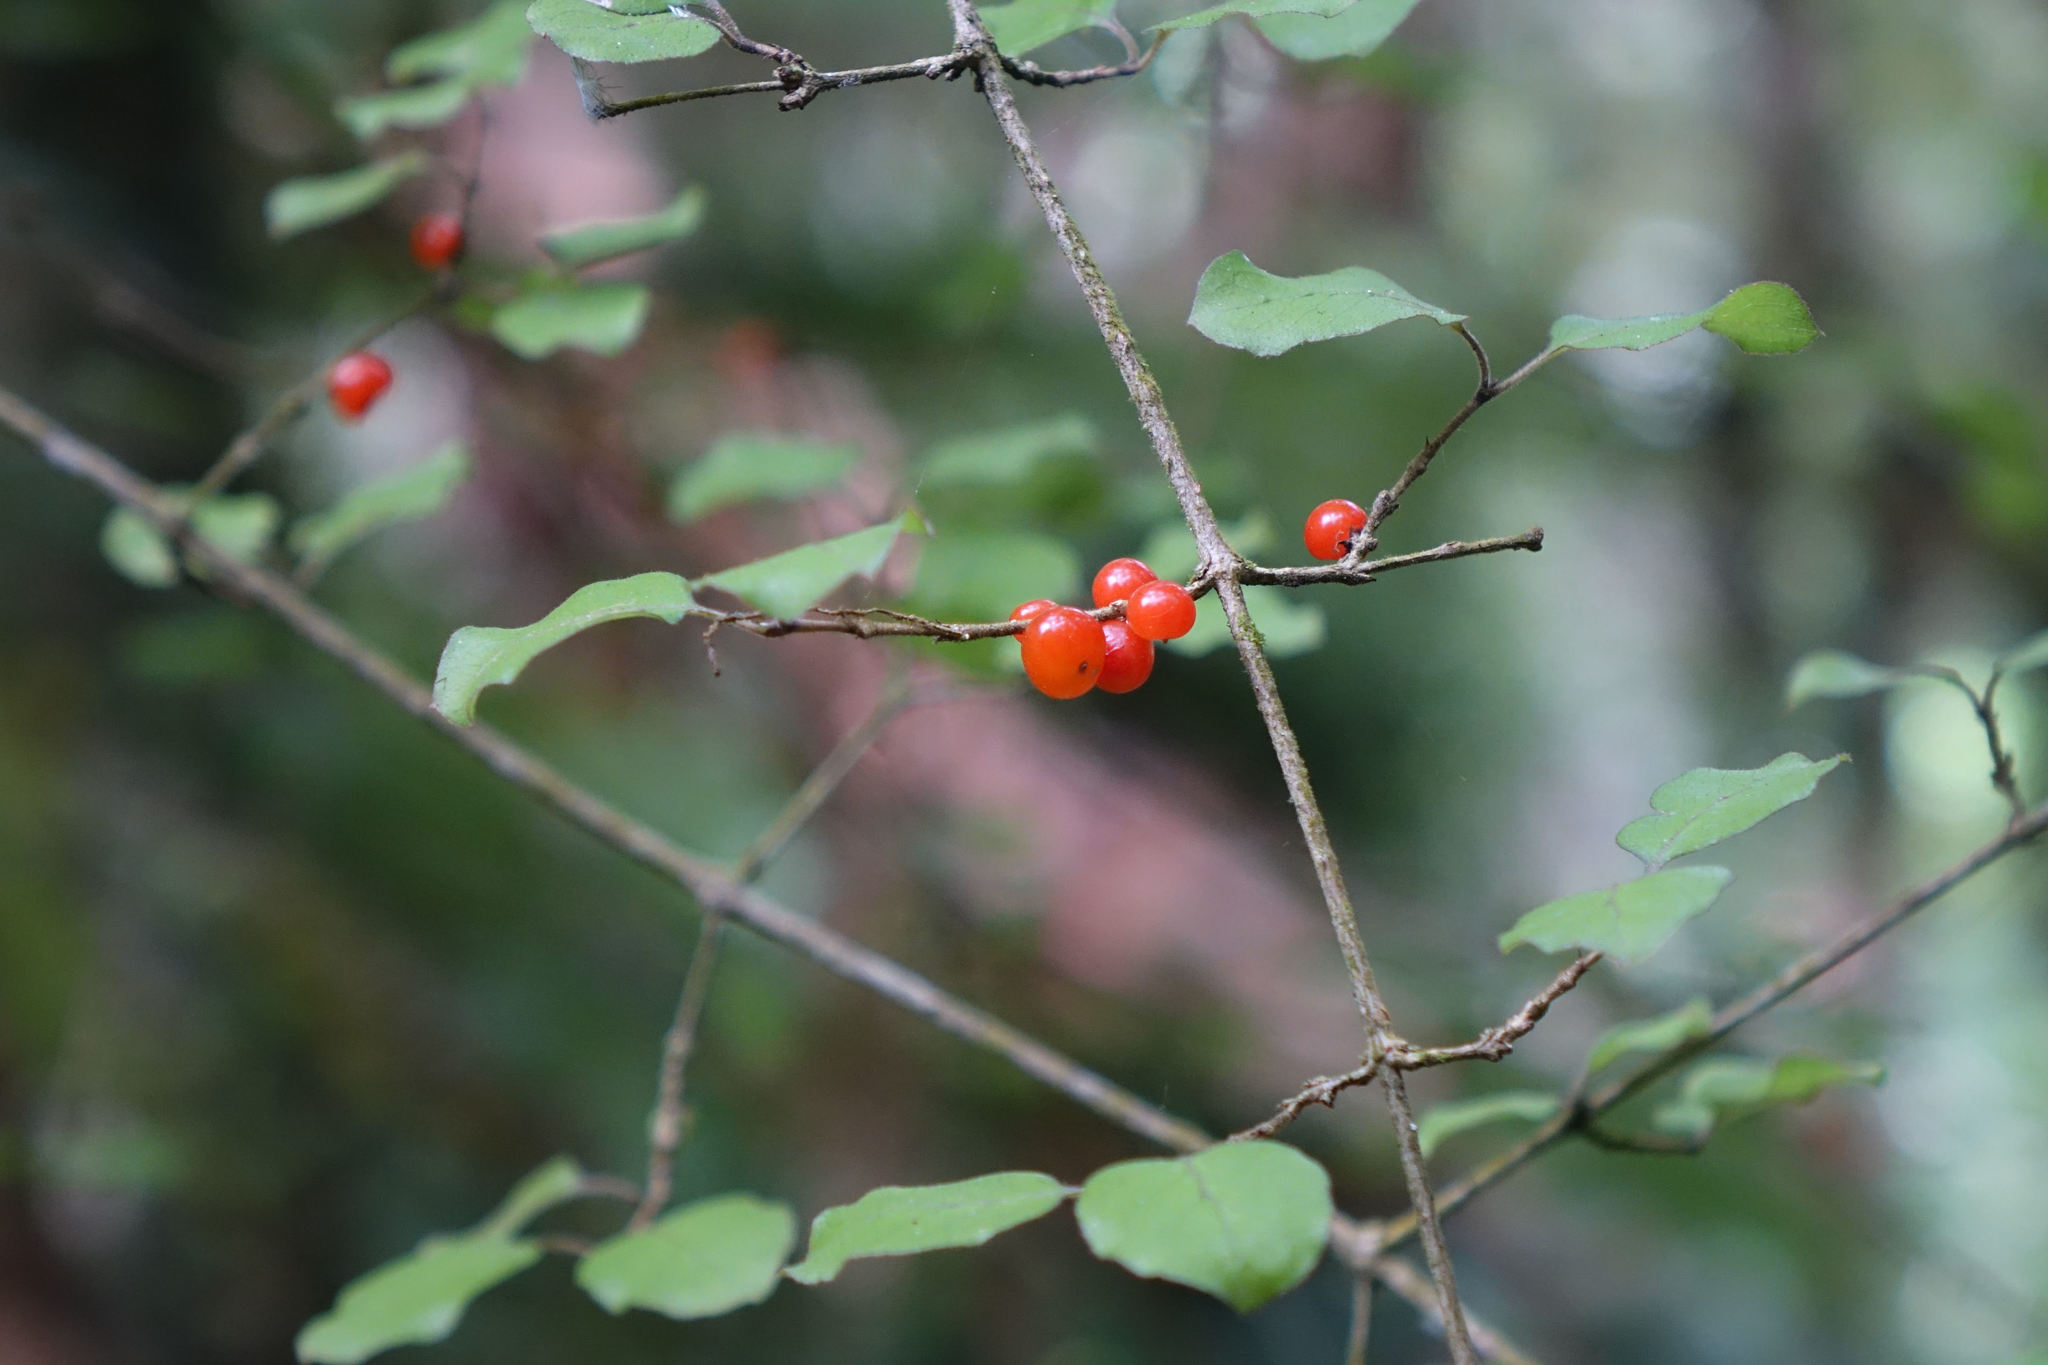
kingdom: Plantae
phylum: Tracheophyta
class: Magnoliopsida
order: Gentianales
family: Rubiaceae
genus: Coprosma
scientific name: Coprosma rotundifolia
